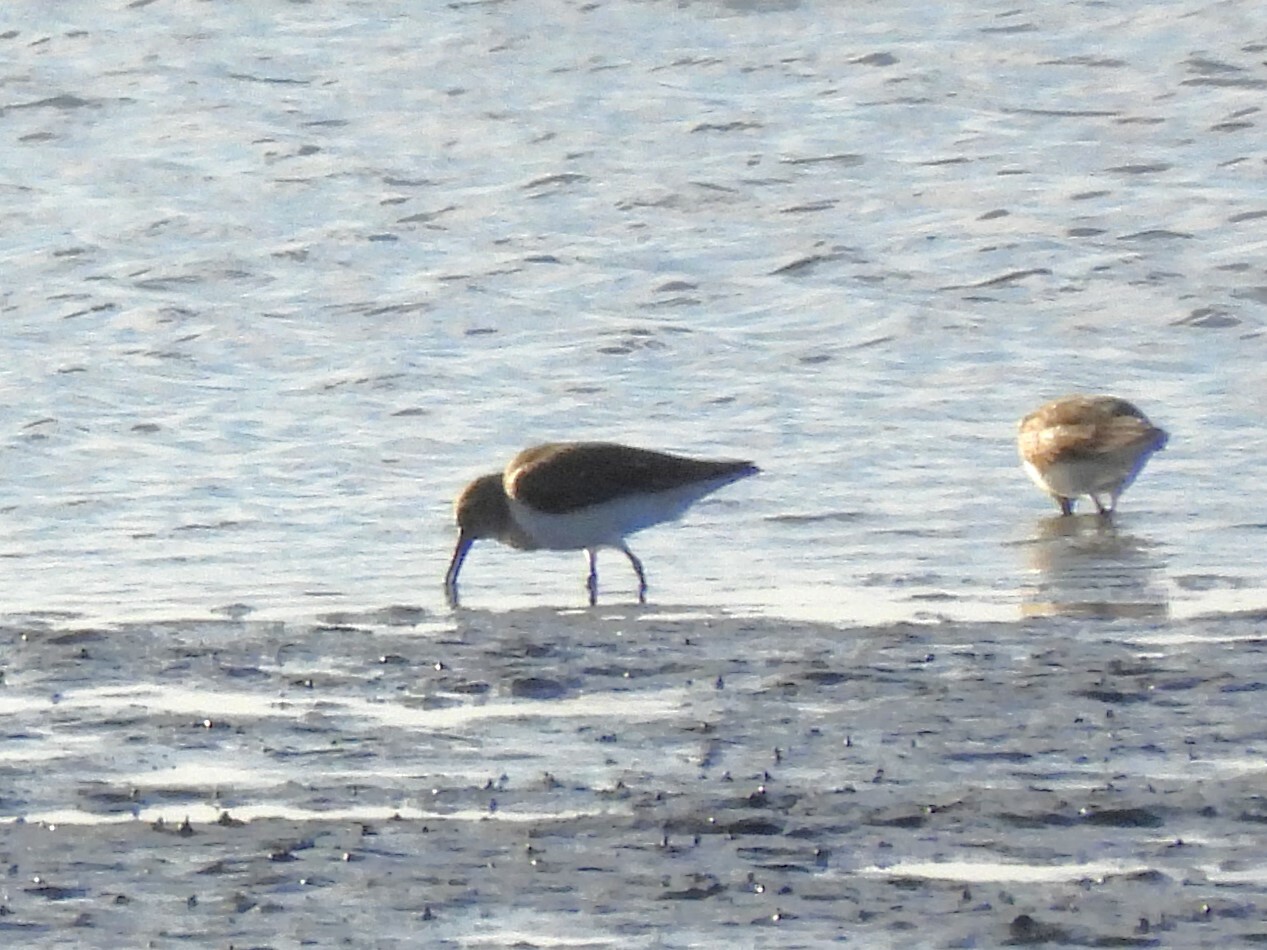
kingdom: Animalia
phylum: Chordata
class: Aves
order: Charadriiformes
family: Scolopacidae
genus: Calidris
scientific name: Calidris alpina
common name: Dunlin
